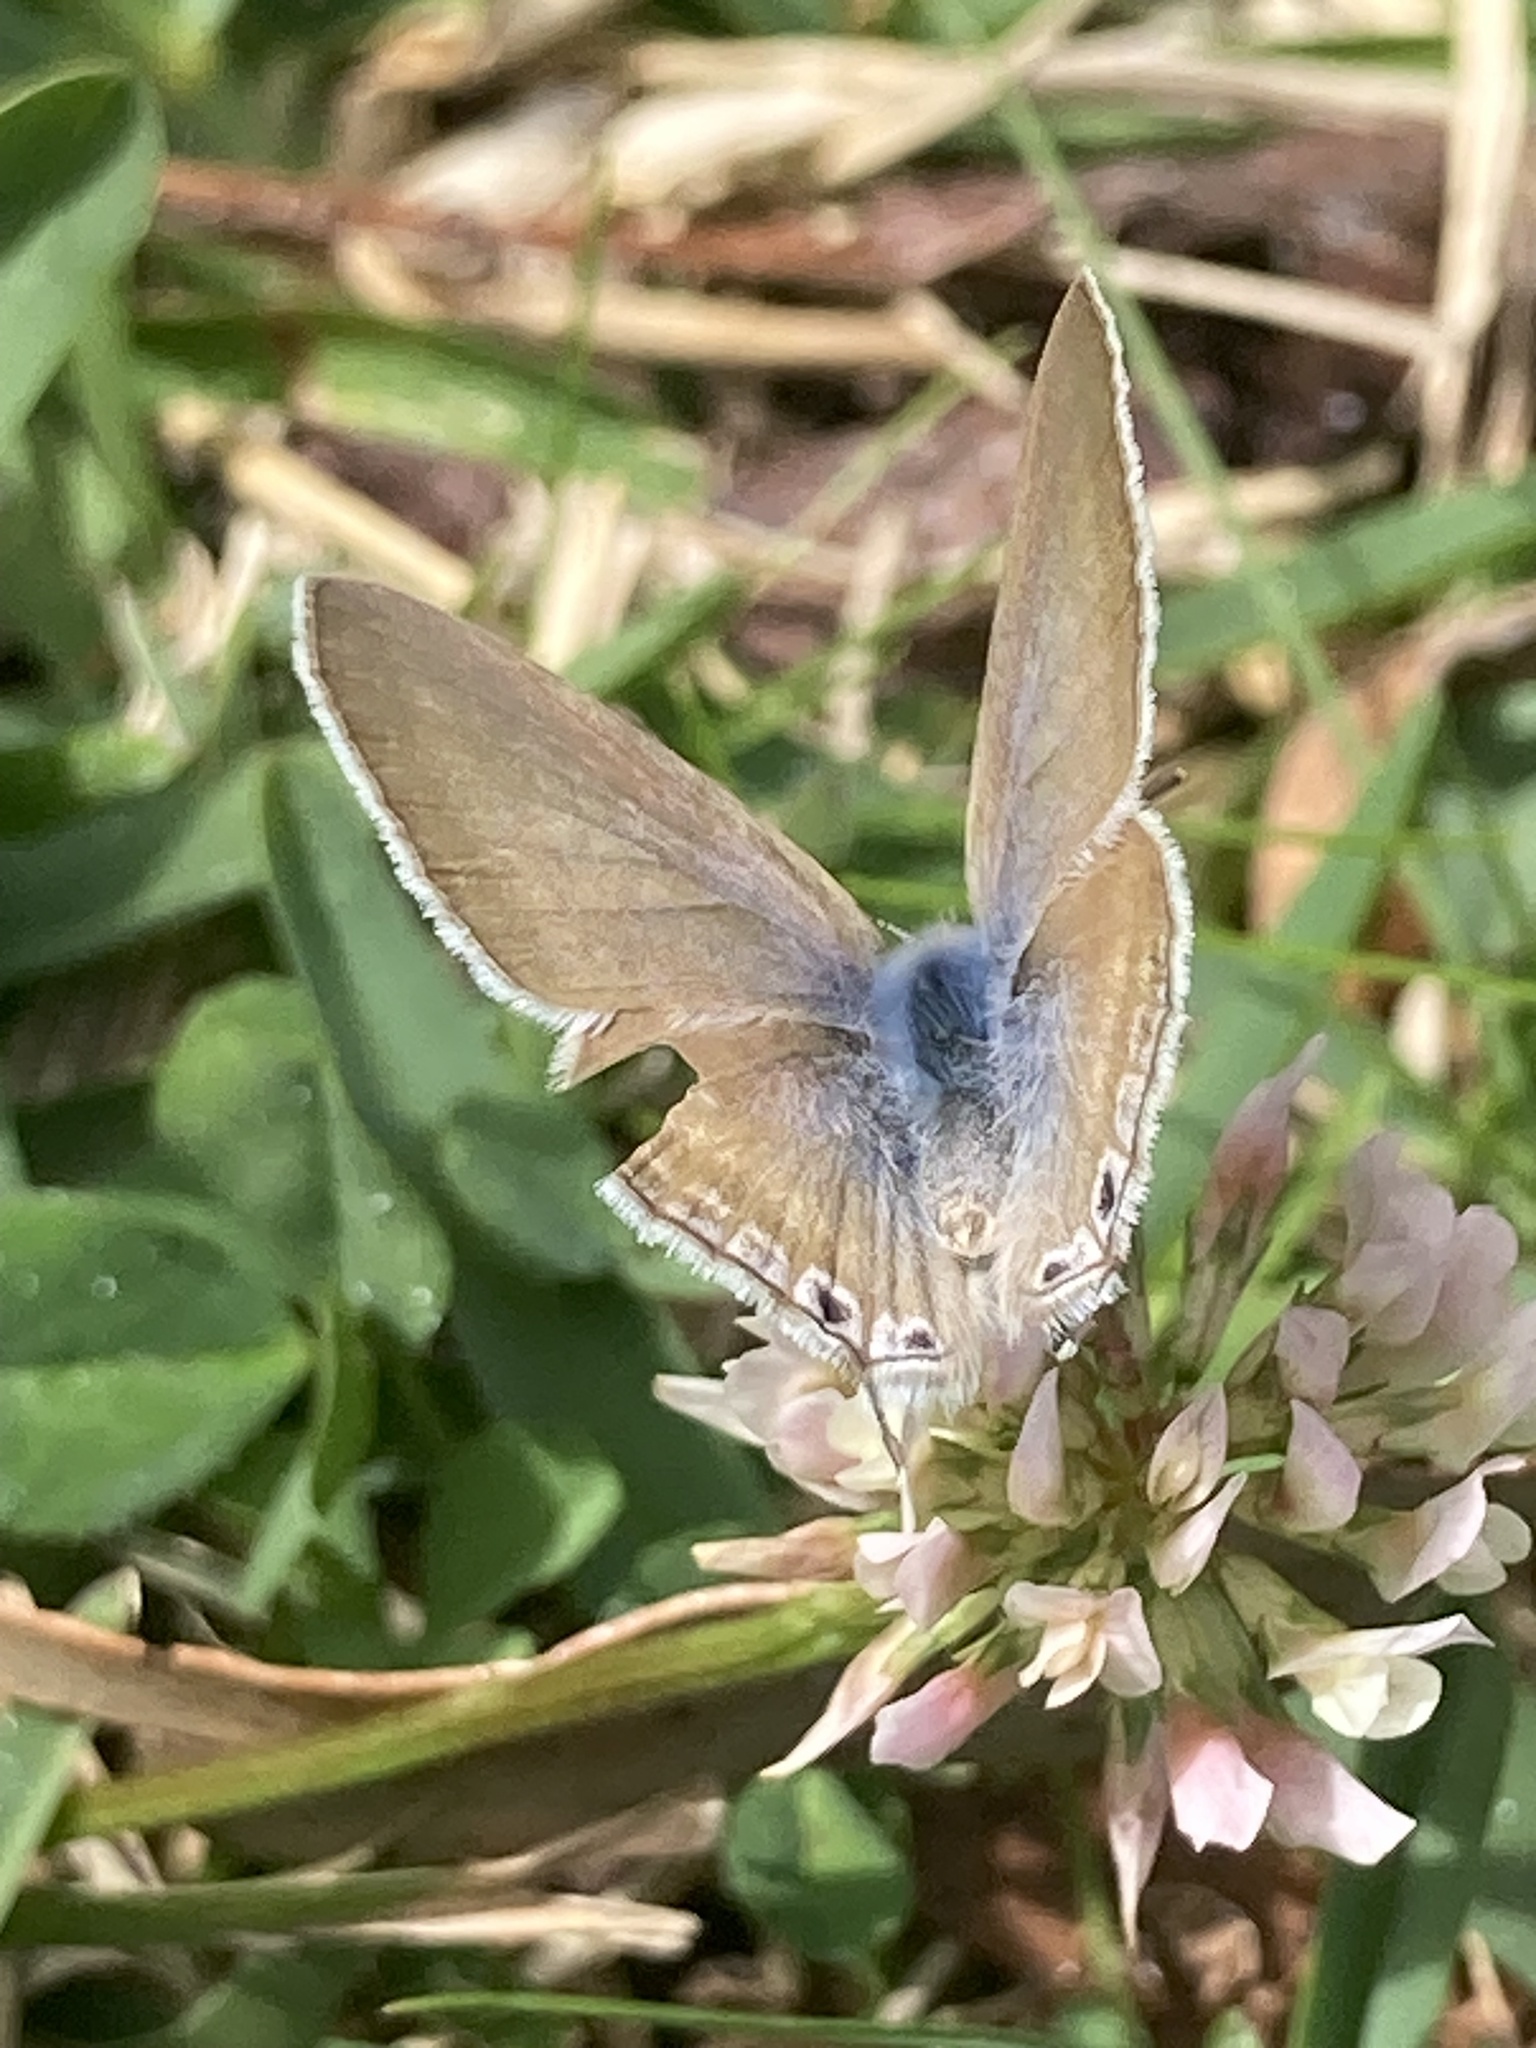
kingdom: Animalia
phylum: Arthropoda
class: Insecta
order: Lepidoptera
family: Lycaenidae
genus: Lampides
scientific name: Lampides boeticus
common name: Long-tailed blue
